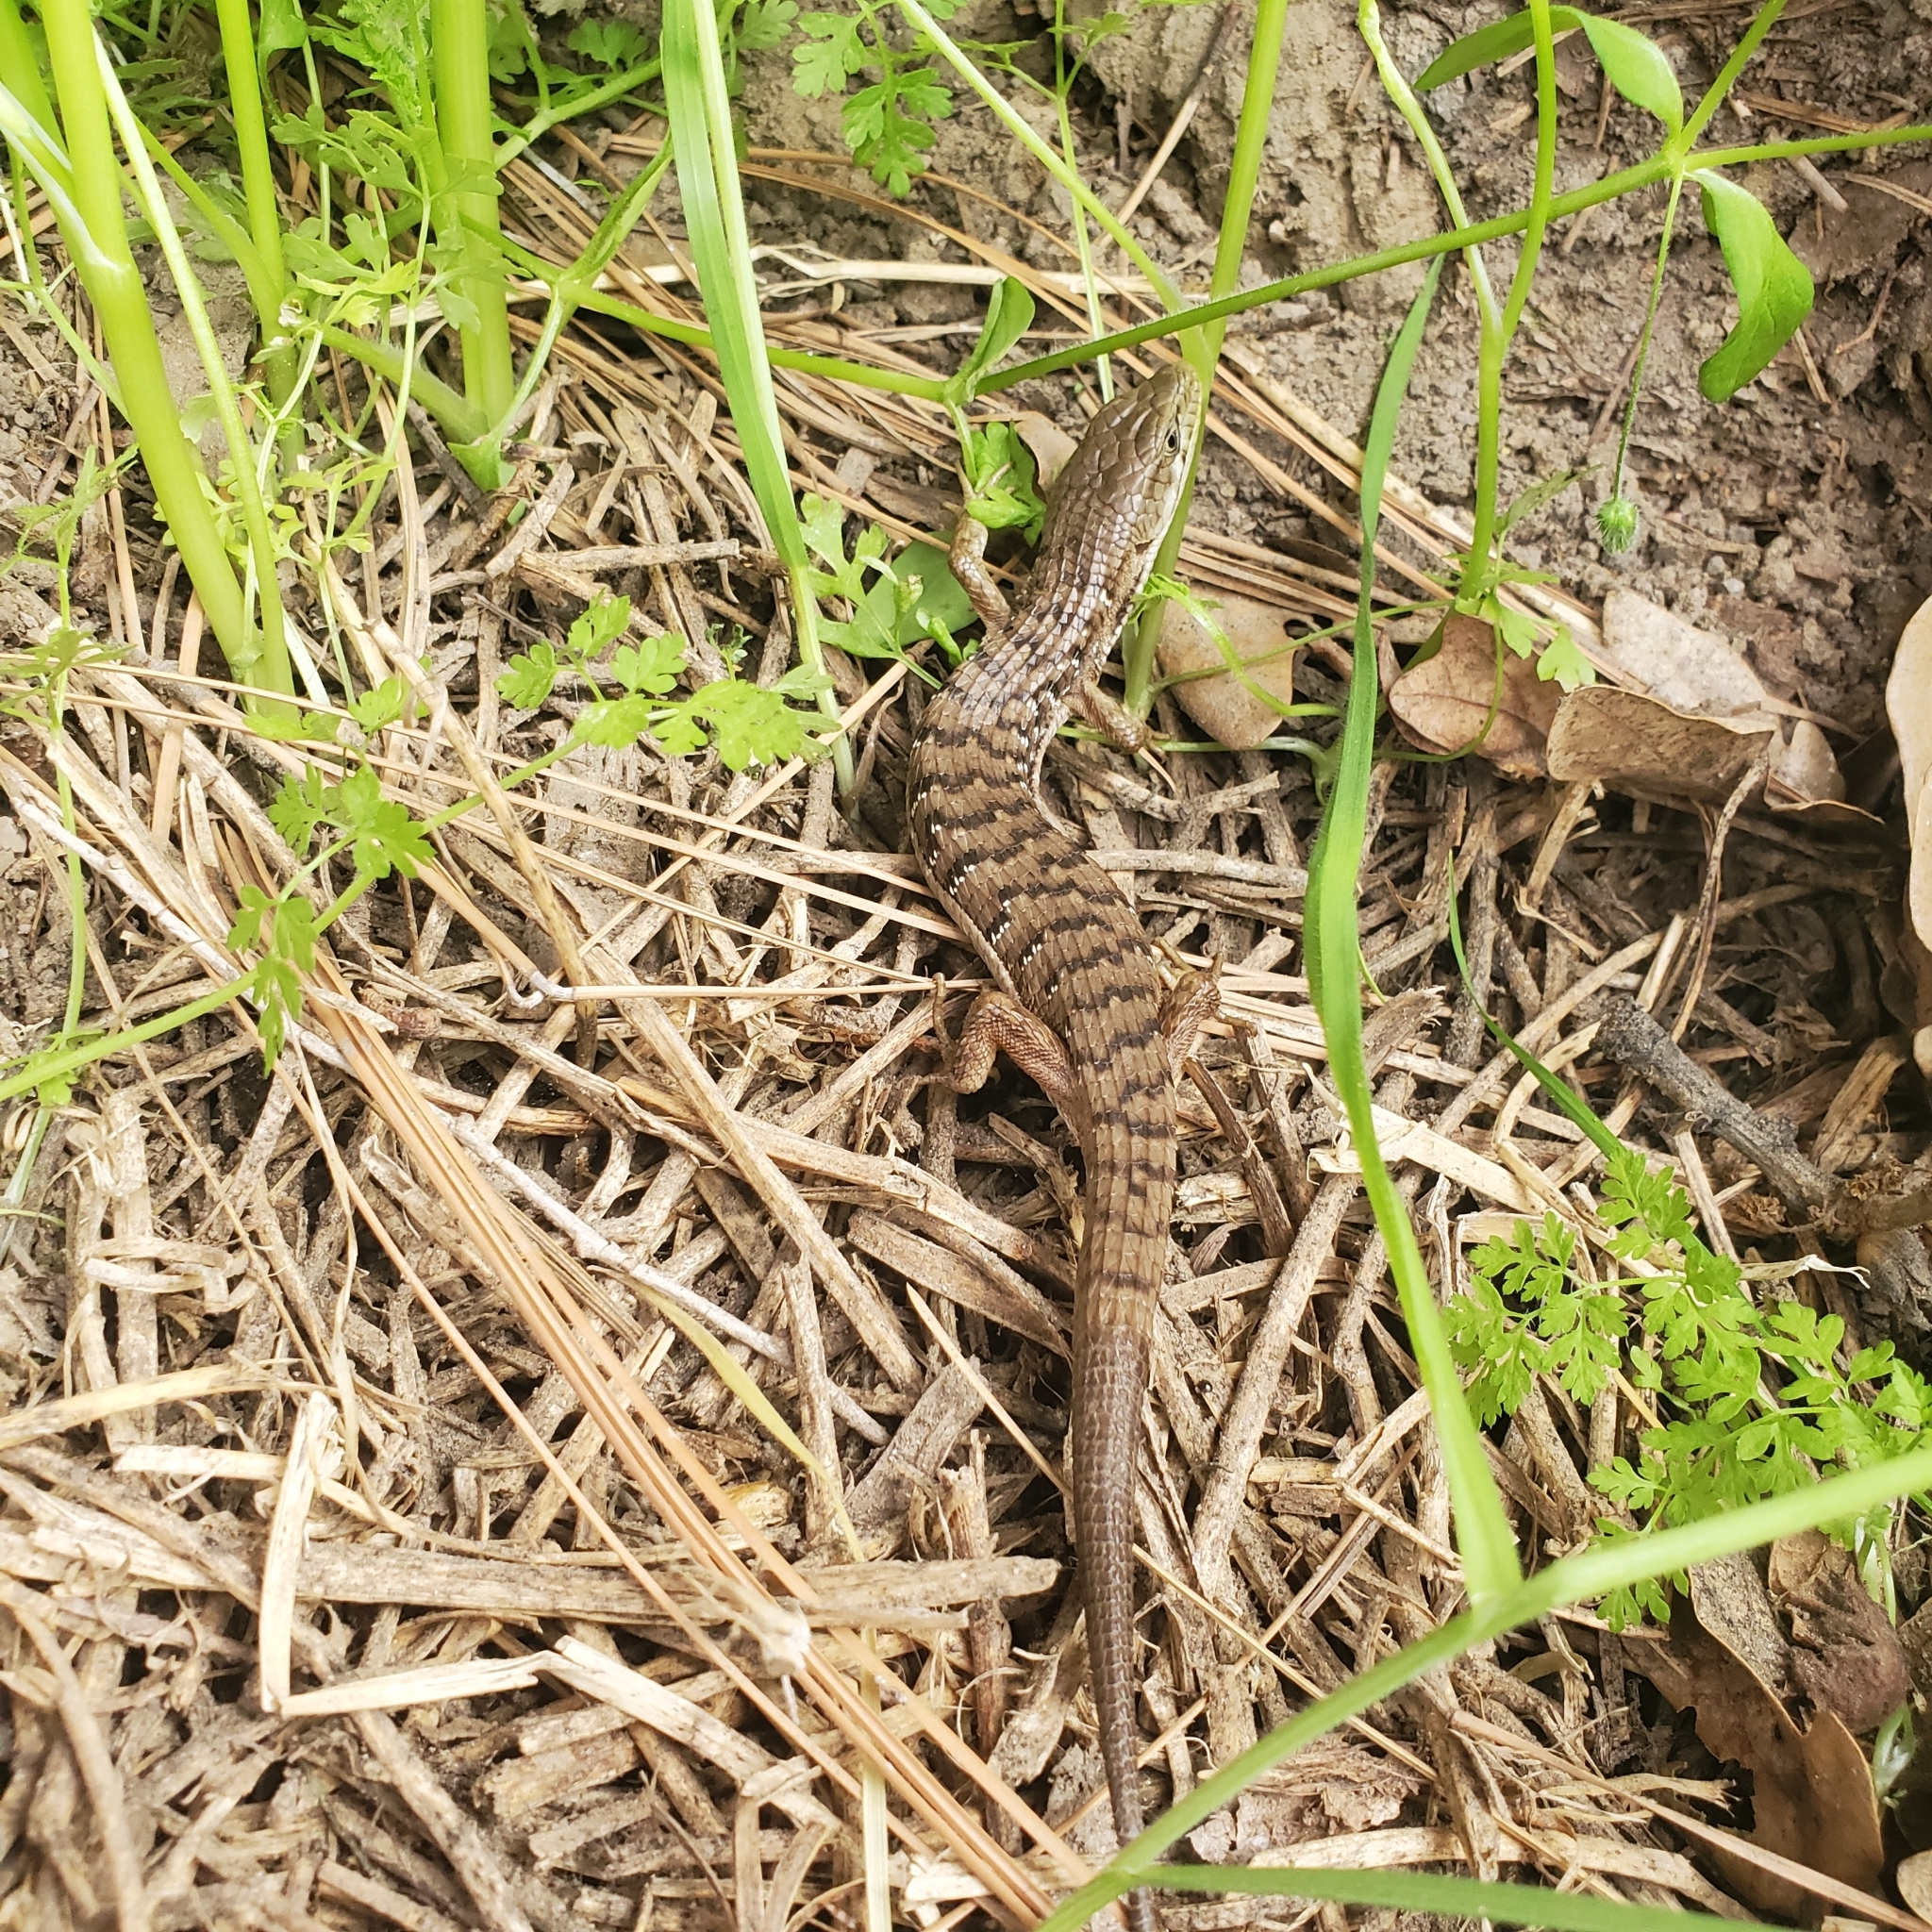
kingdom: Animalia
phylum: Chordata
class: Squamata
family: Anguidae
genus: Elgaria
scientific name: Elgaria multicarinata
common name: Southern alligator lizard
